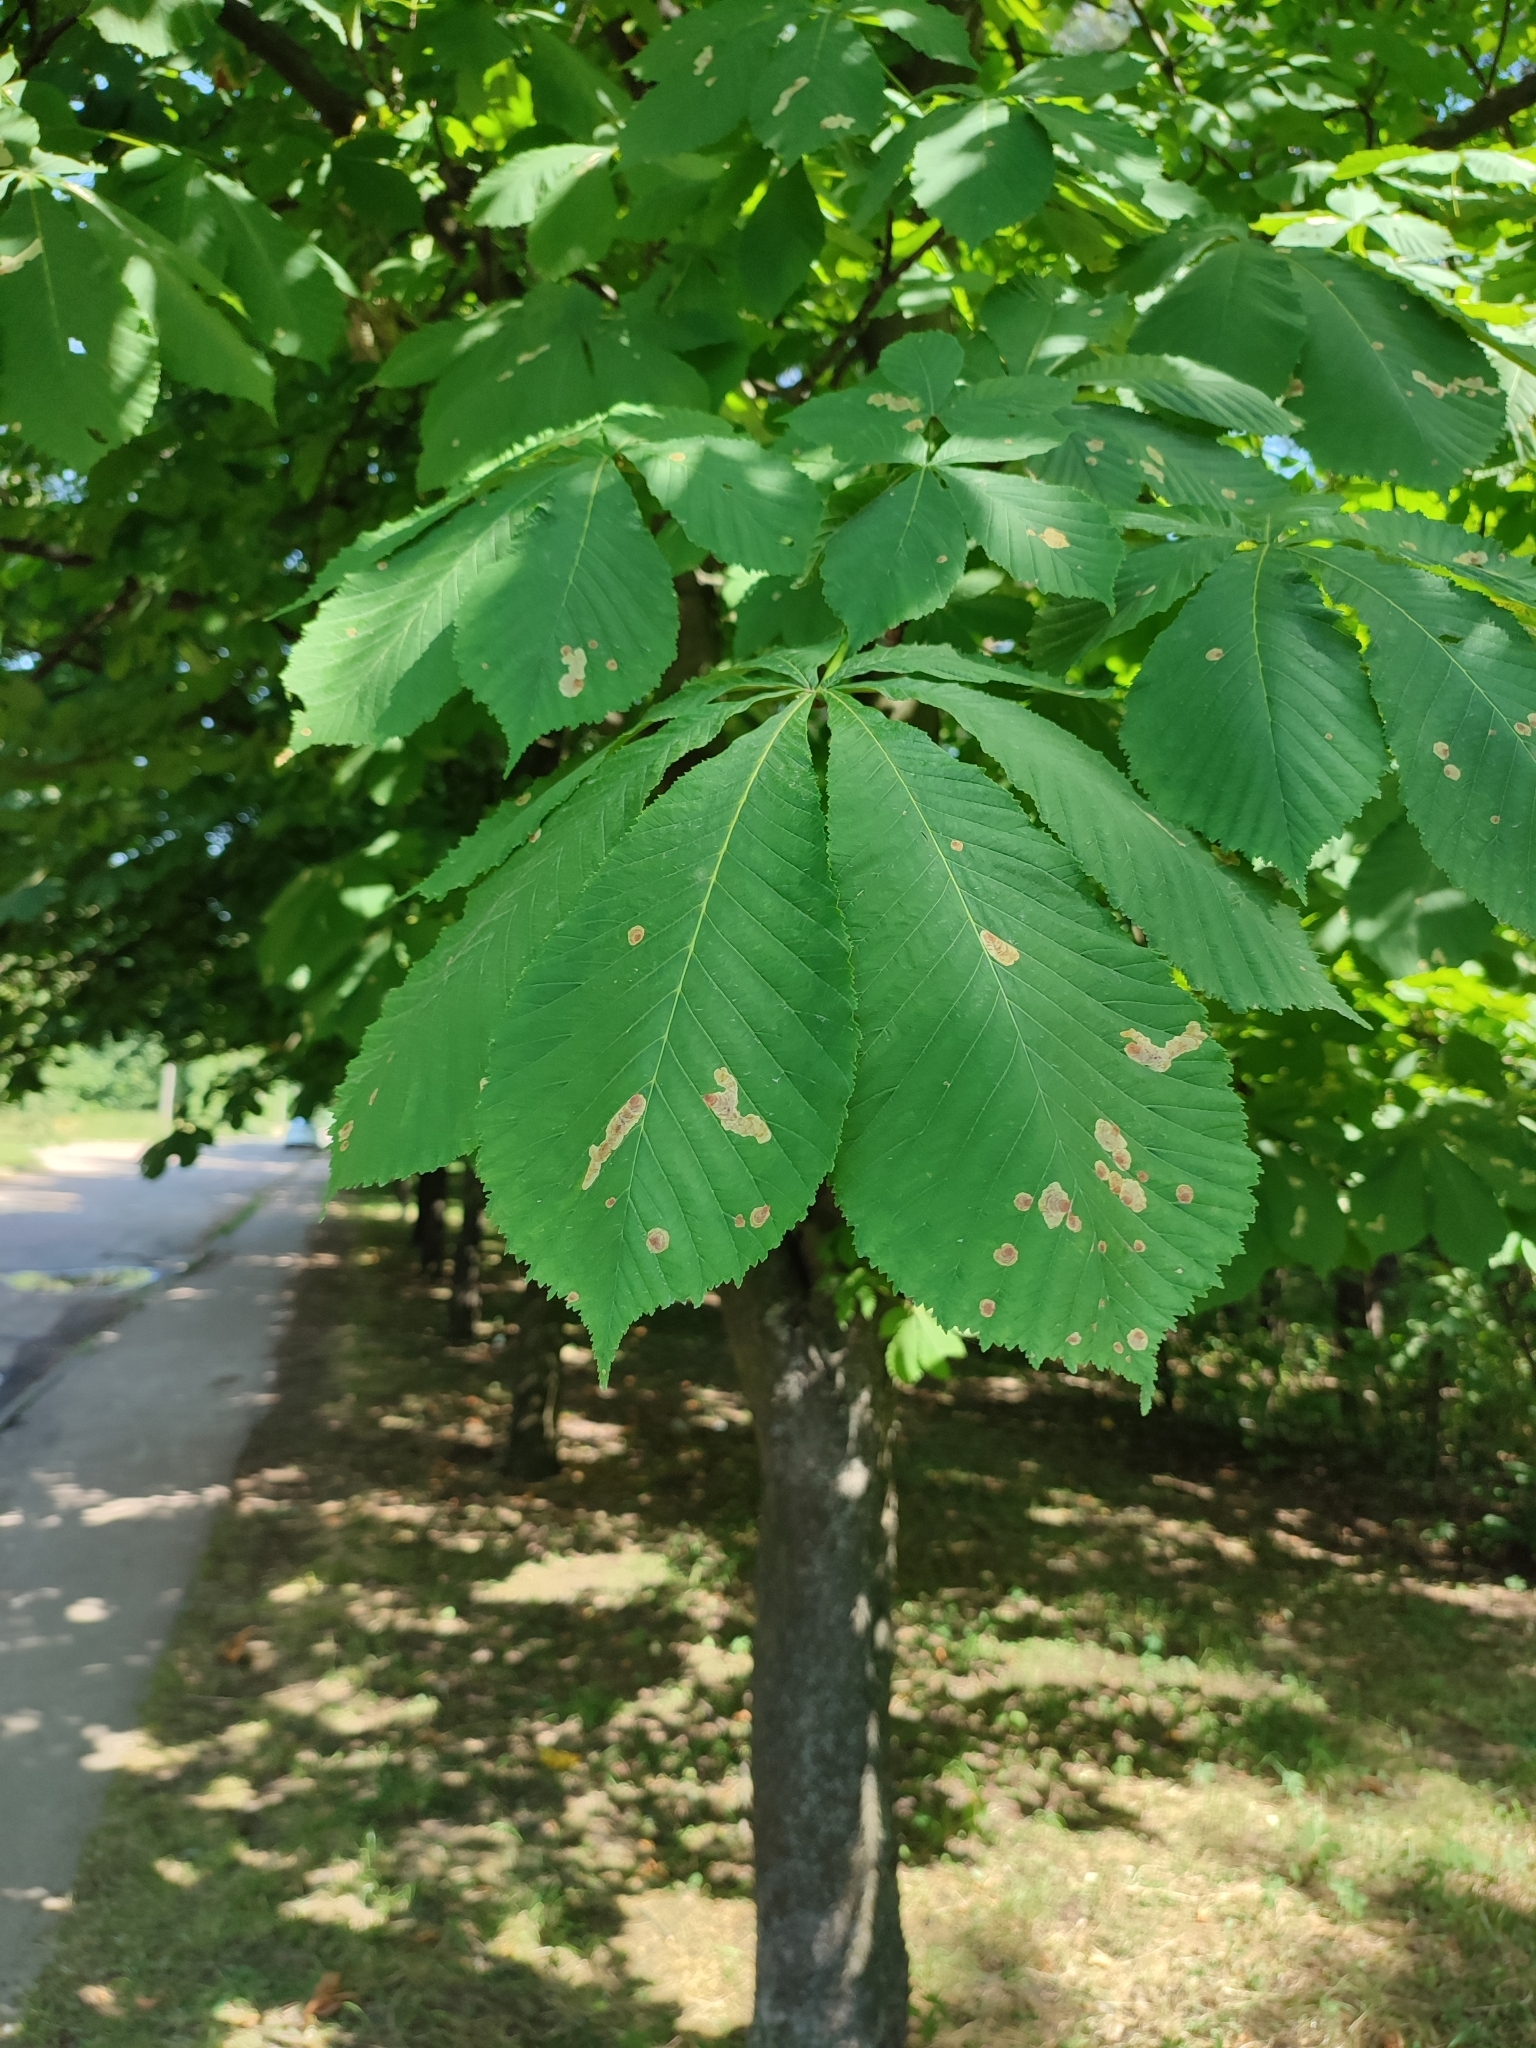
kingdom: Animalia
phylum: Arthropoda
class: Insecta
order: Lepidoptera
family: Gracillariidae
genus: Cameraria
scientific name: Cameraria ohridella
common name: Horse-chestnut leaf-miner
